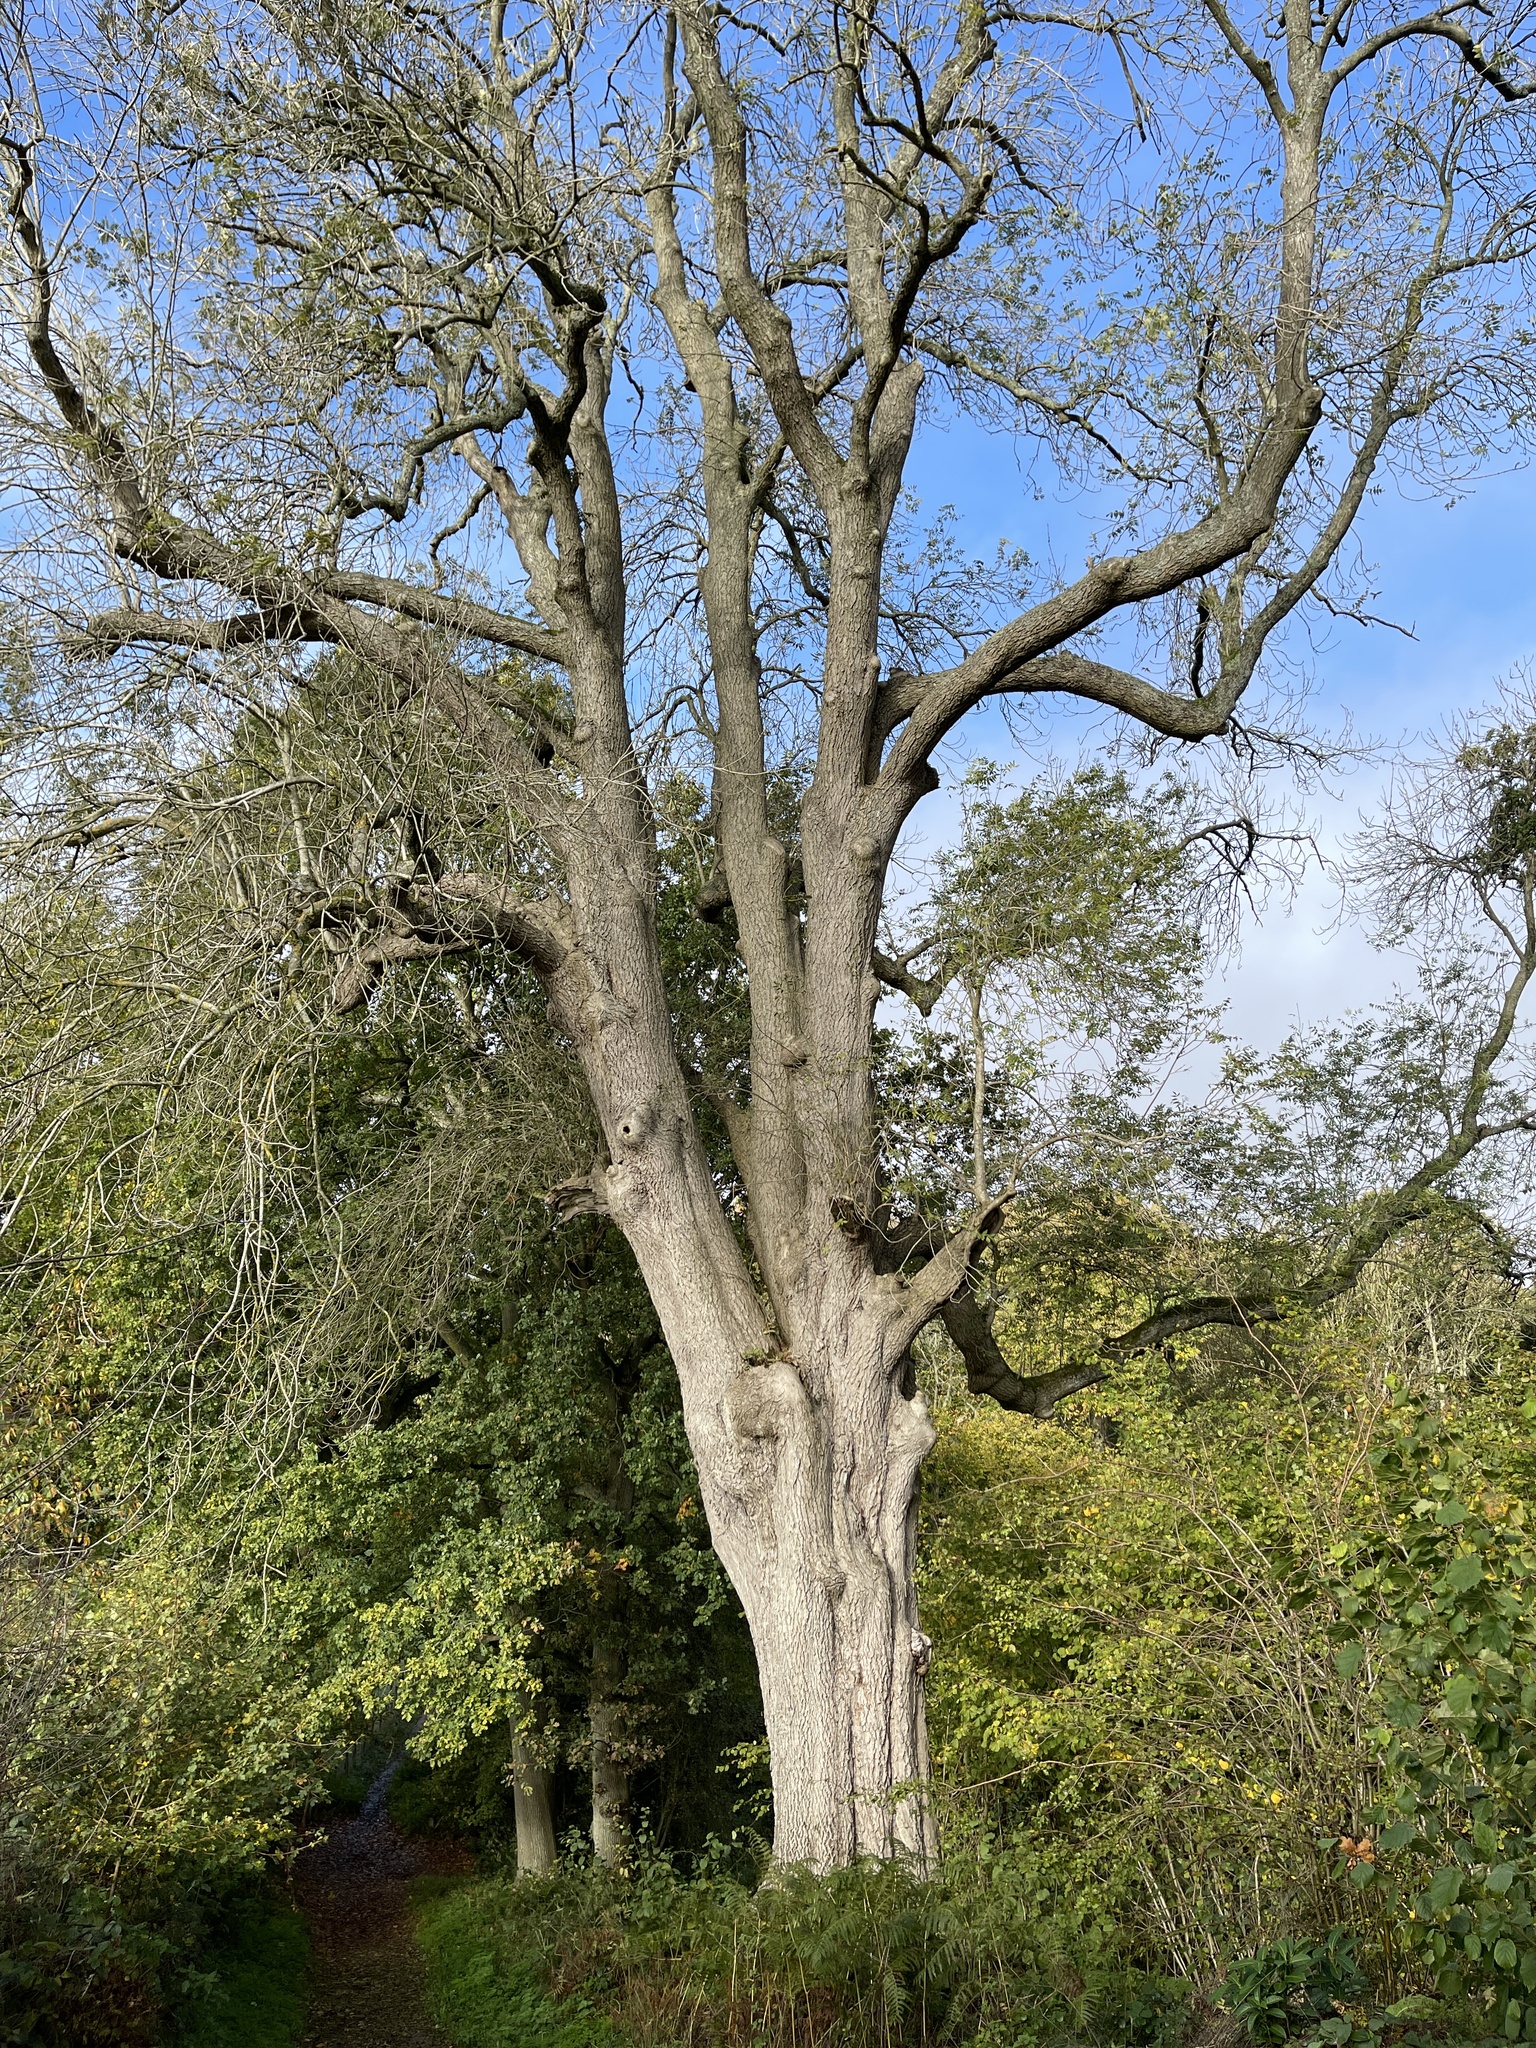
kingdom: Plantae
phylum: Tracheophyta
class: Magnoliopsida
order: Lamiales
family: Oleaceae
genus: Fraxinus
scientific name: Fraxinus excelsior
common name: European ash
